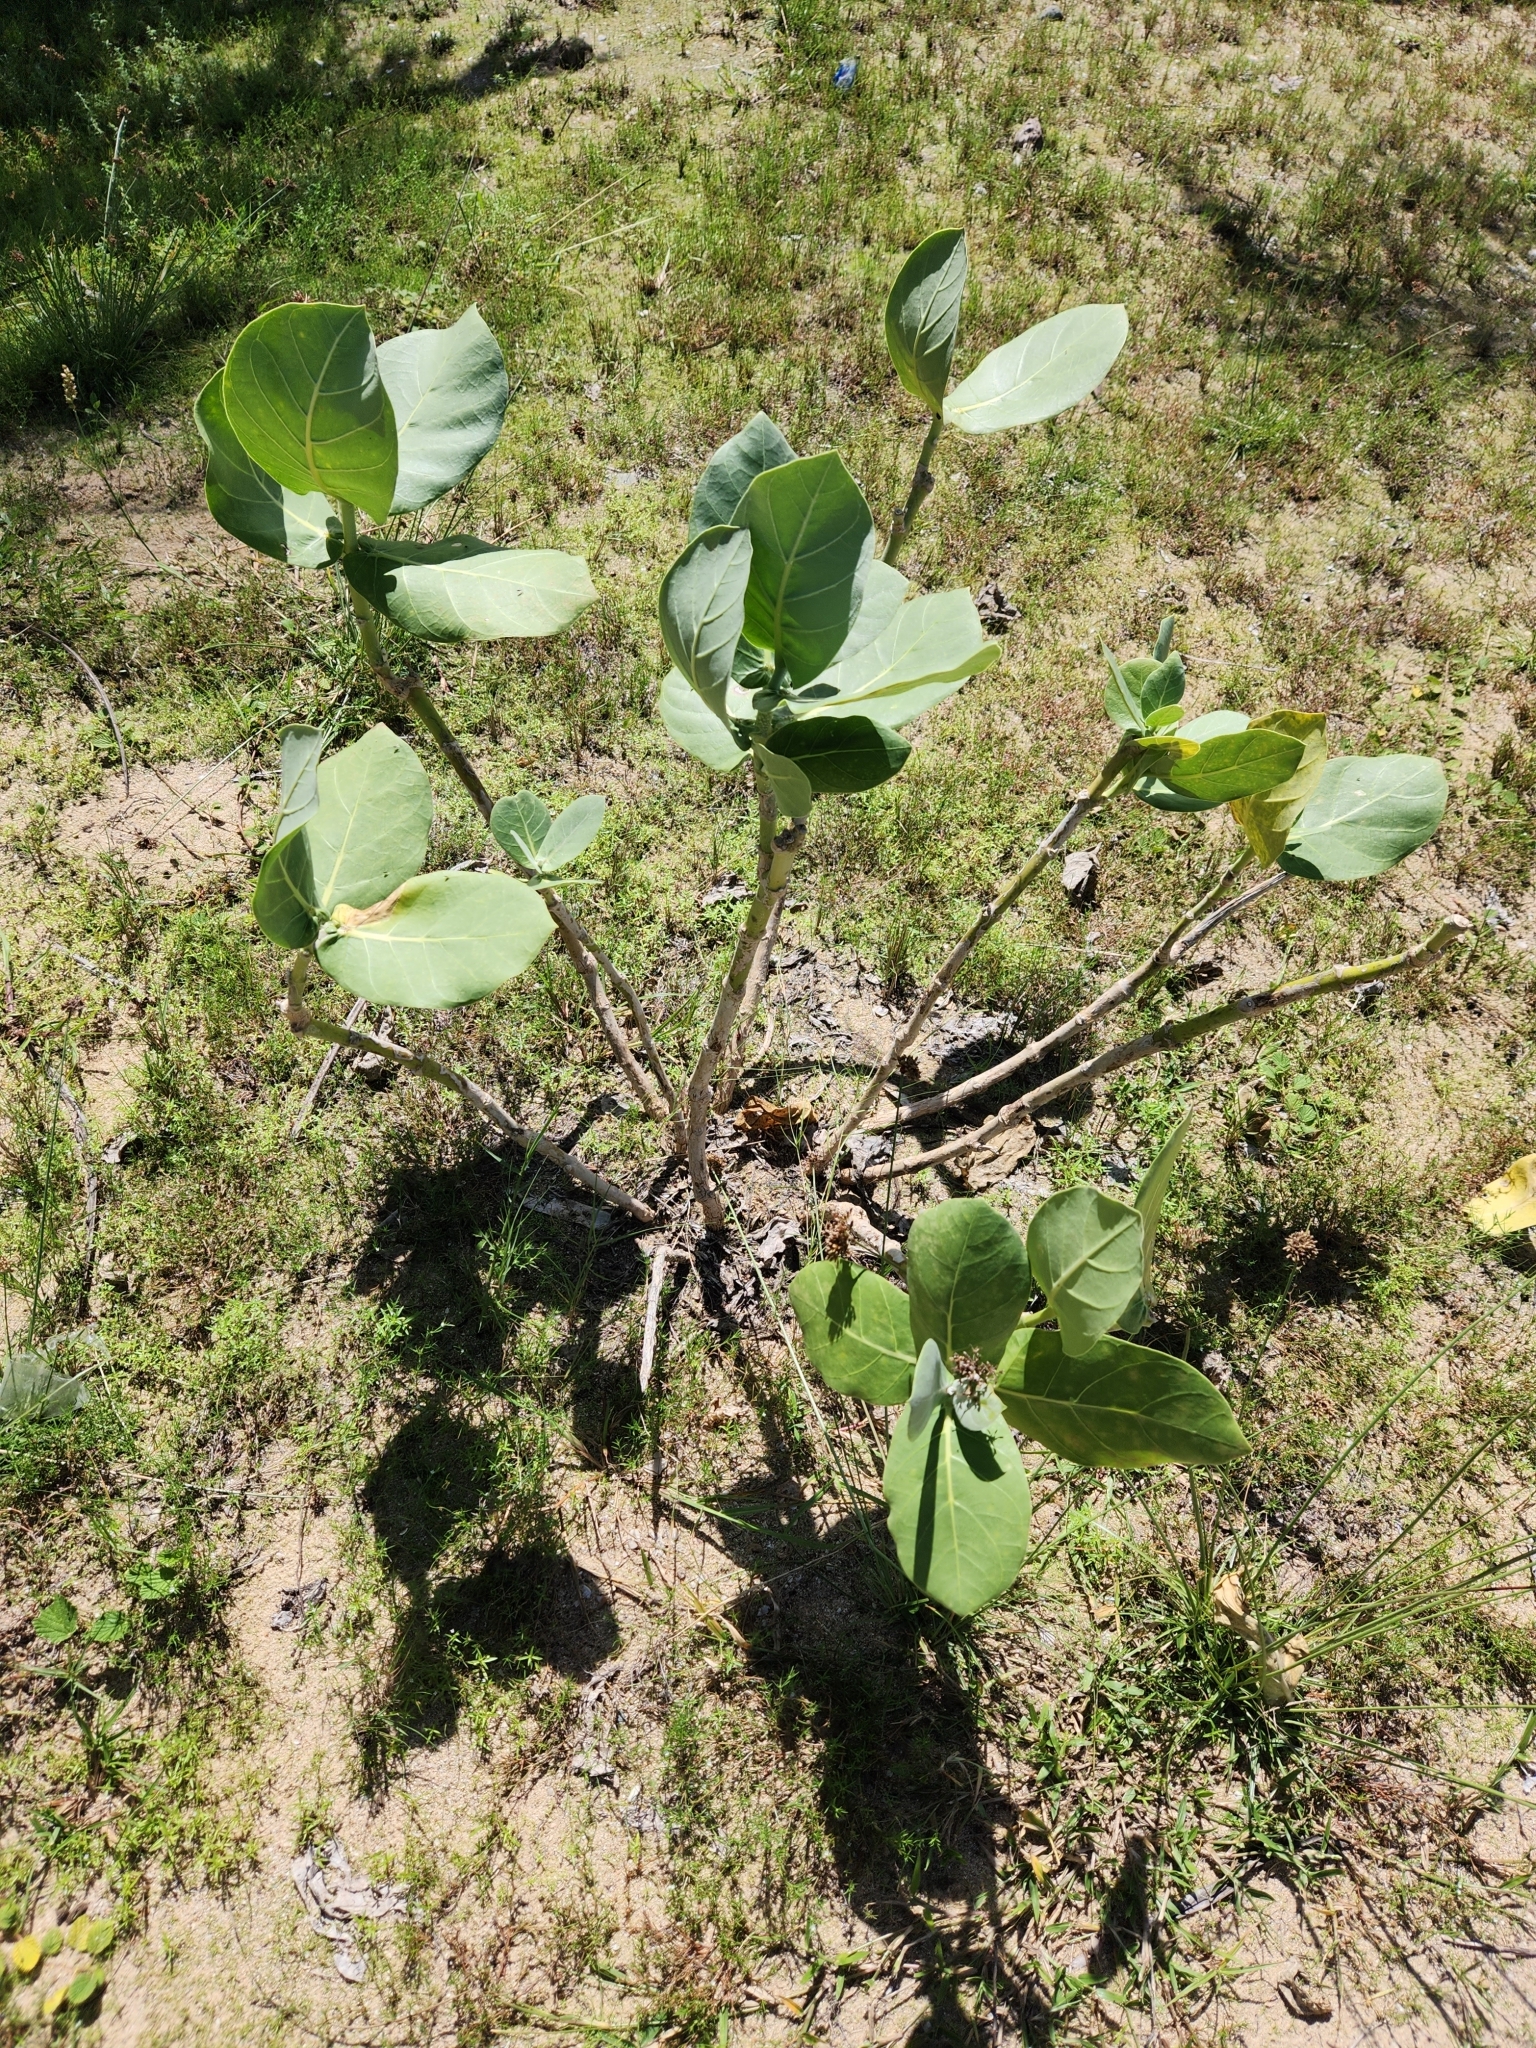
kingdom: Plantae
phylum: Tracheophyta
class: Magnoliopsida
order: Gentianales
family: Apocynaceae
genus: Calotropis
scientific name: Calotropis procera
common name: Roostertree
